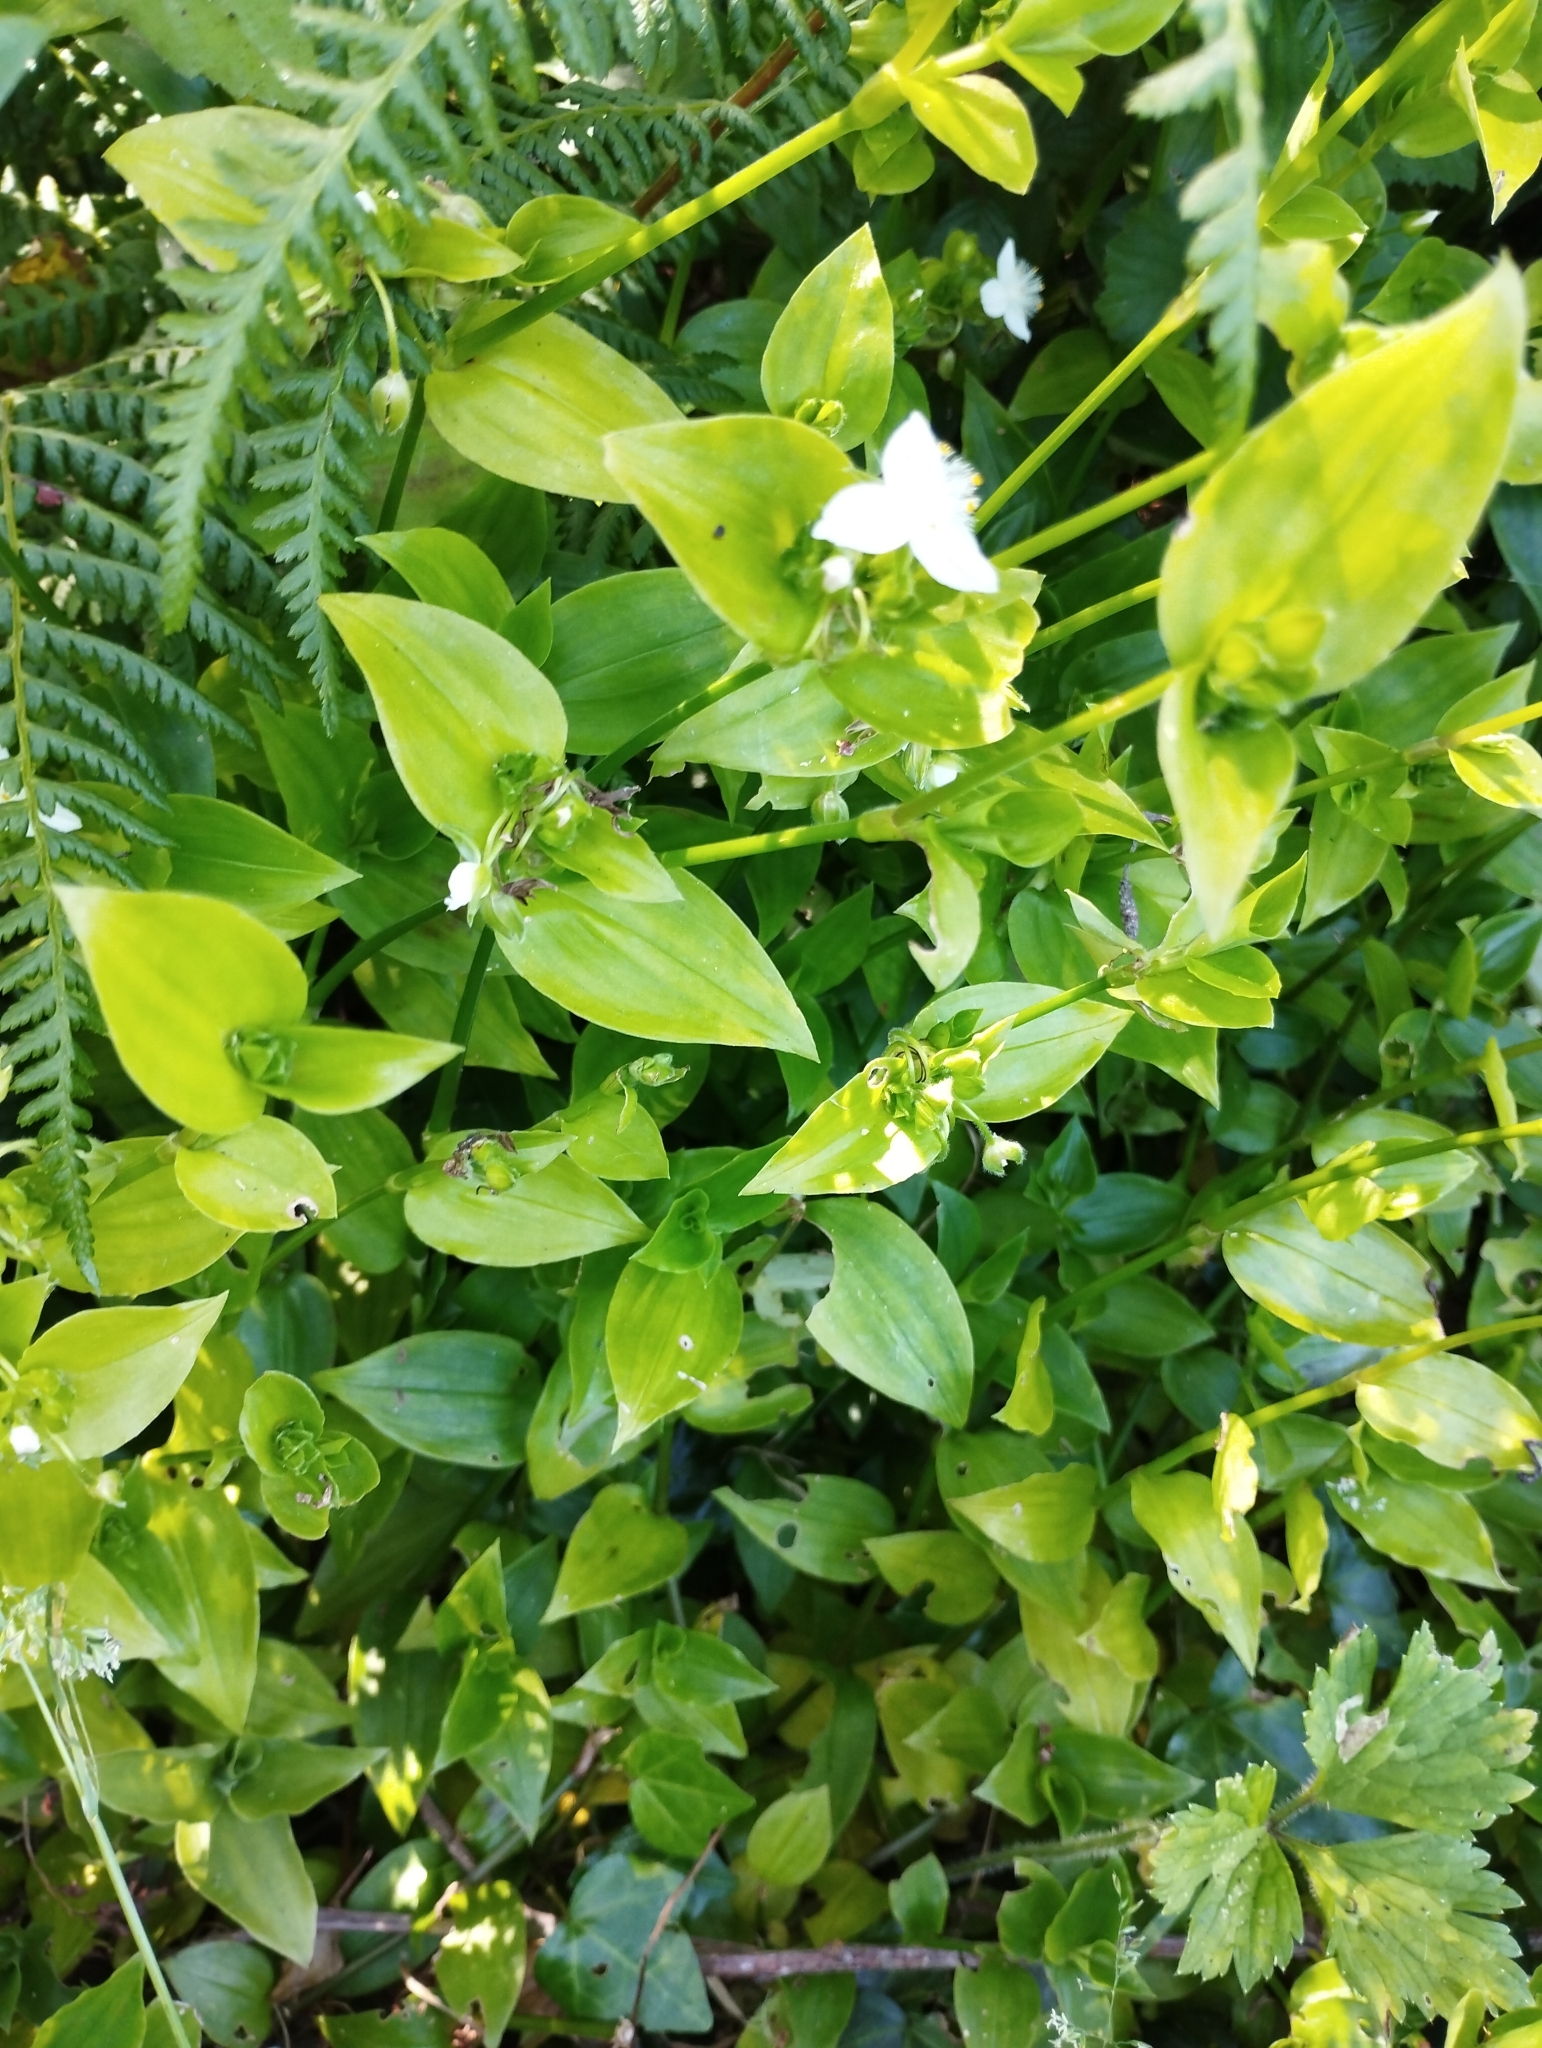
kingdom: Plantae
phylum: Tracheophyta
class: Liliopsida
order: Commelinales
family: Commelinaceae
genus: Tradescantia
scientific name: Tradescantia fluminensis
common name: Wandering-jew
